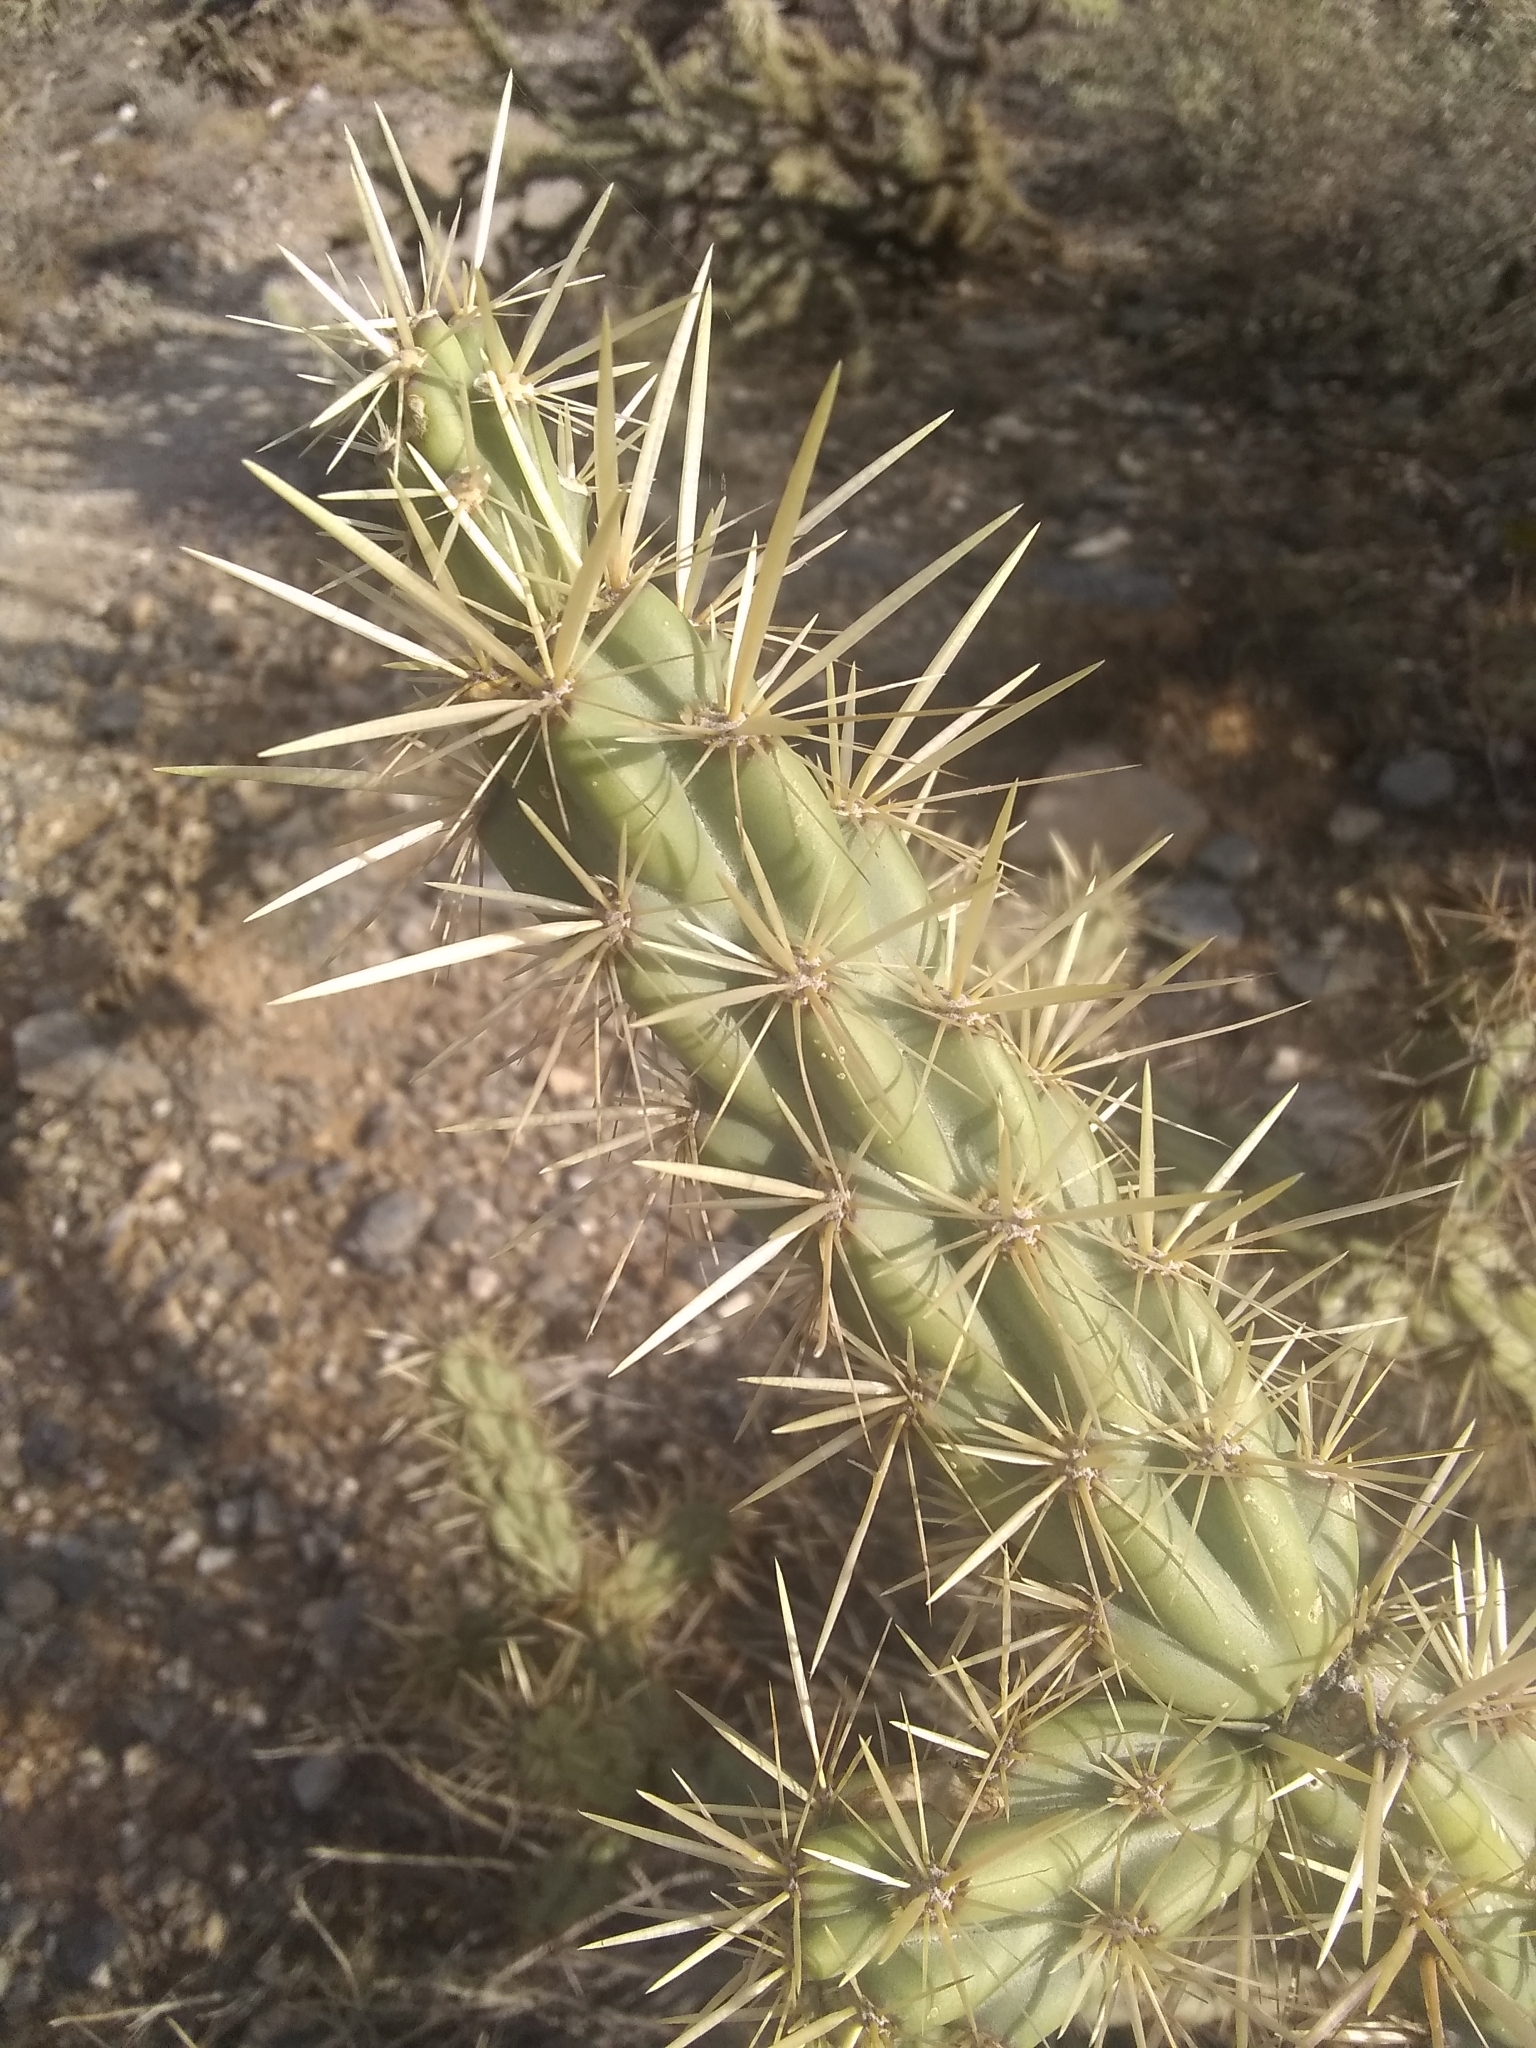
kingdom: Plantae
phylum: Tracheophyta
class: Magnoliopsida
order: Caryophyllales
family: Cactaceae
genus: Cylindropuntia
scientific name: Cylindropuntia acanthocarpa
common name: Buckhorn cholla
